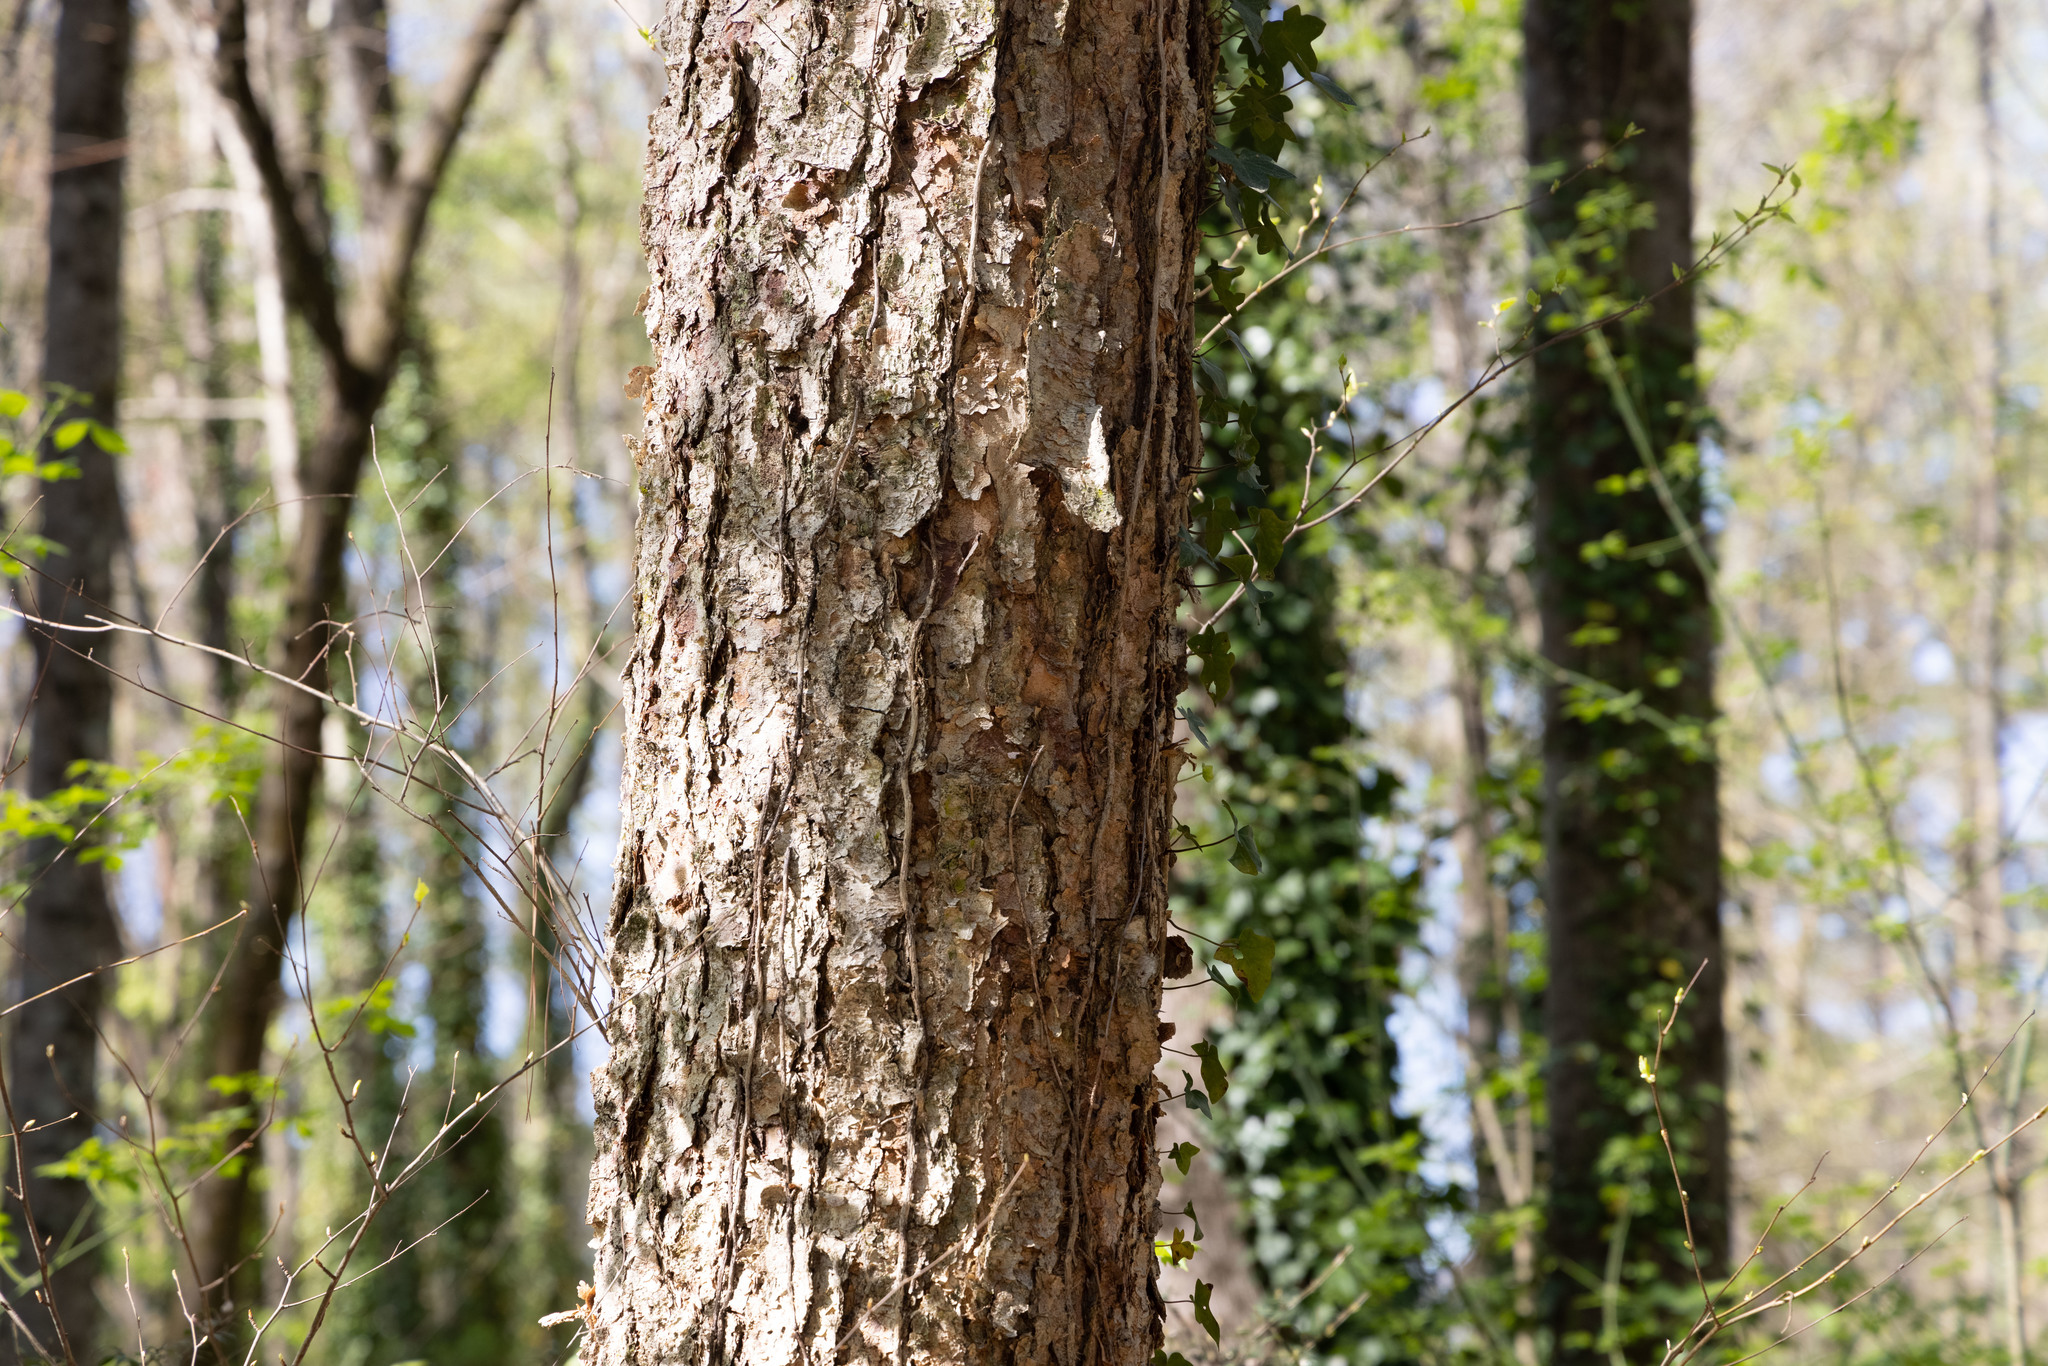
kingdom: Plantae
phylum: Tracheophyta
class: Magnoliopsida
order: Fagales
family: Betulaceae
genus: Betula
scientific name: Betula nigra
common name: Black birch
